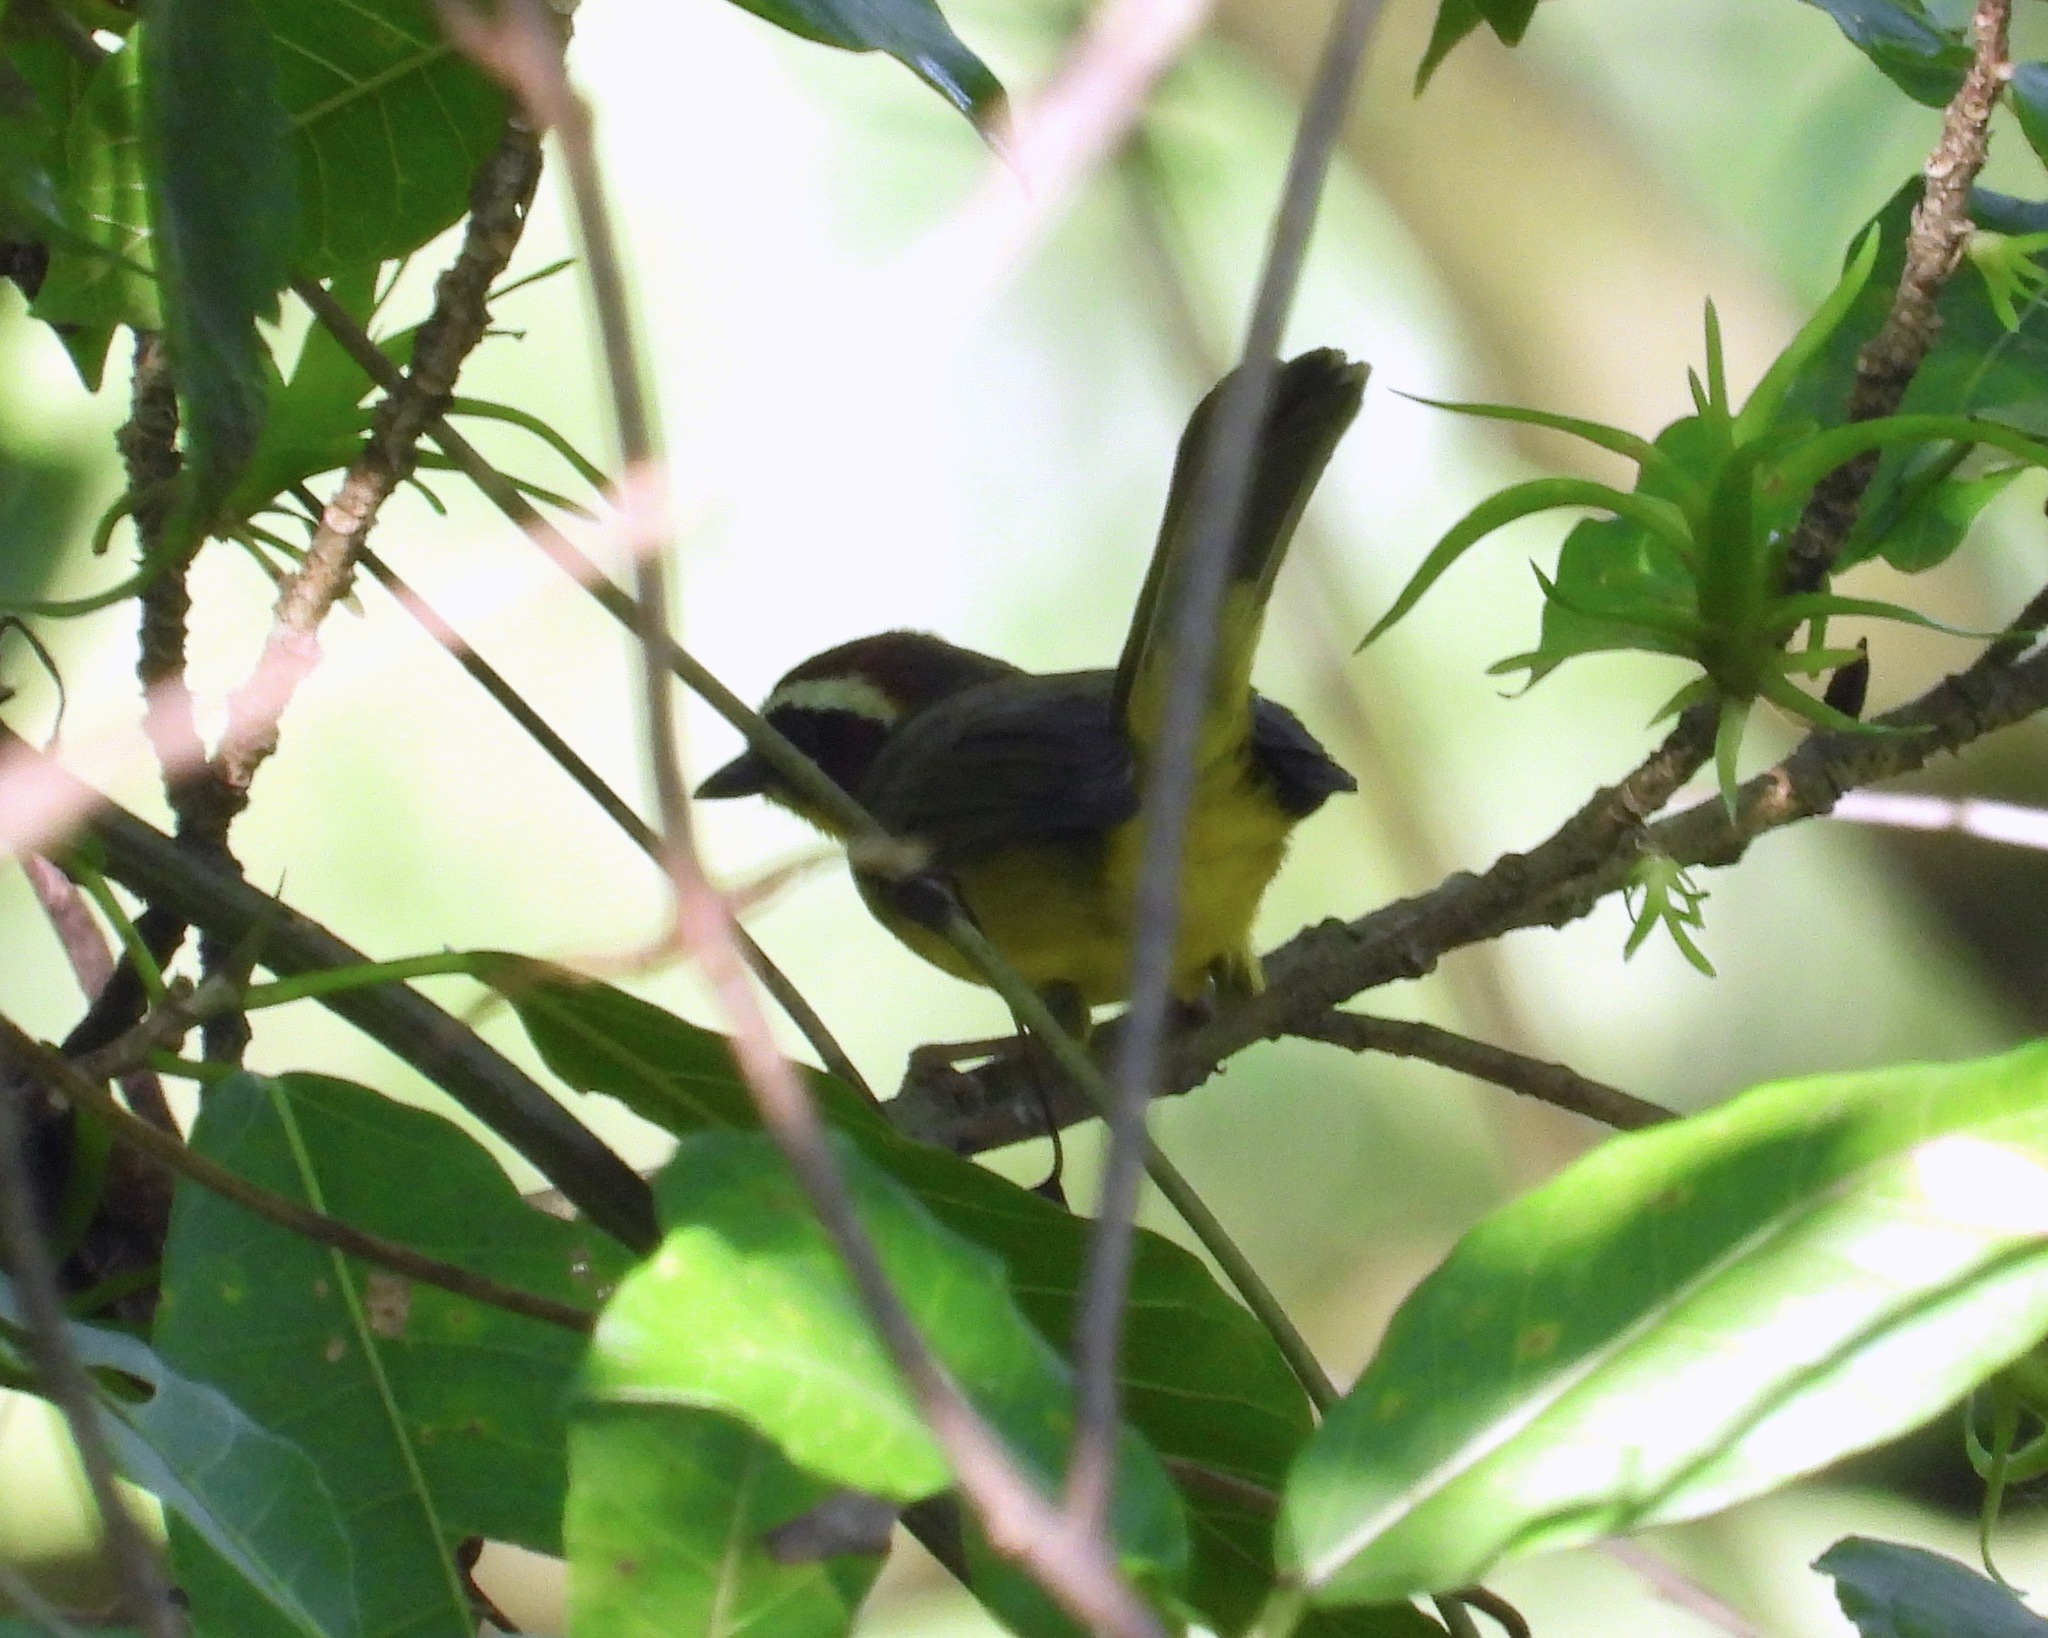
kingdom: Animalia
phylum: Chordata
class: Aves
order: Passeriformes
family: Parulidae
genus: Basileuterus
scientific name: Basileuterus rufifrons
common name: Rufous-capped warbler
